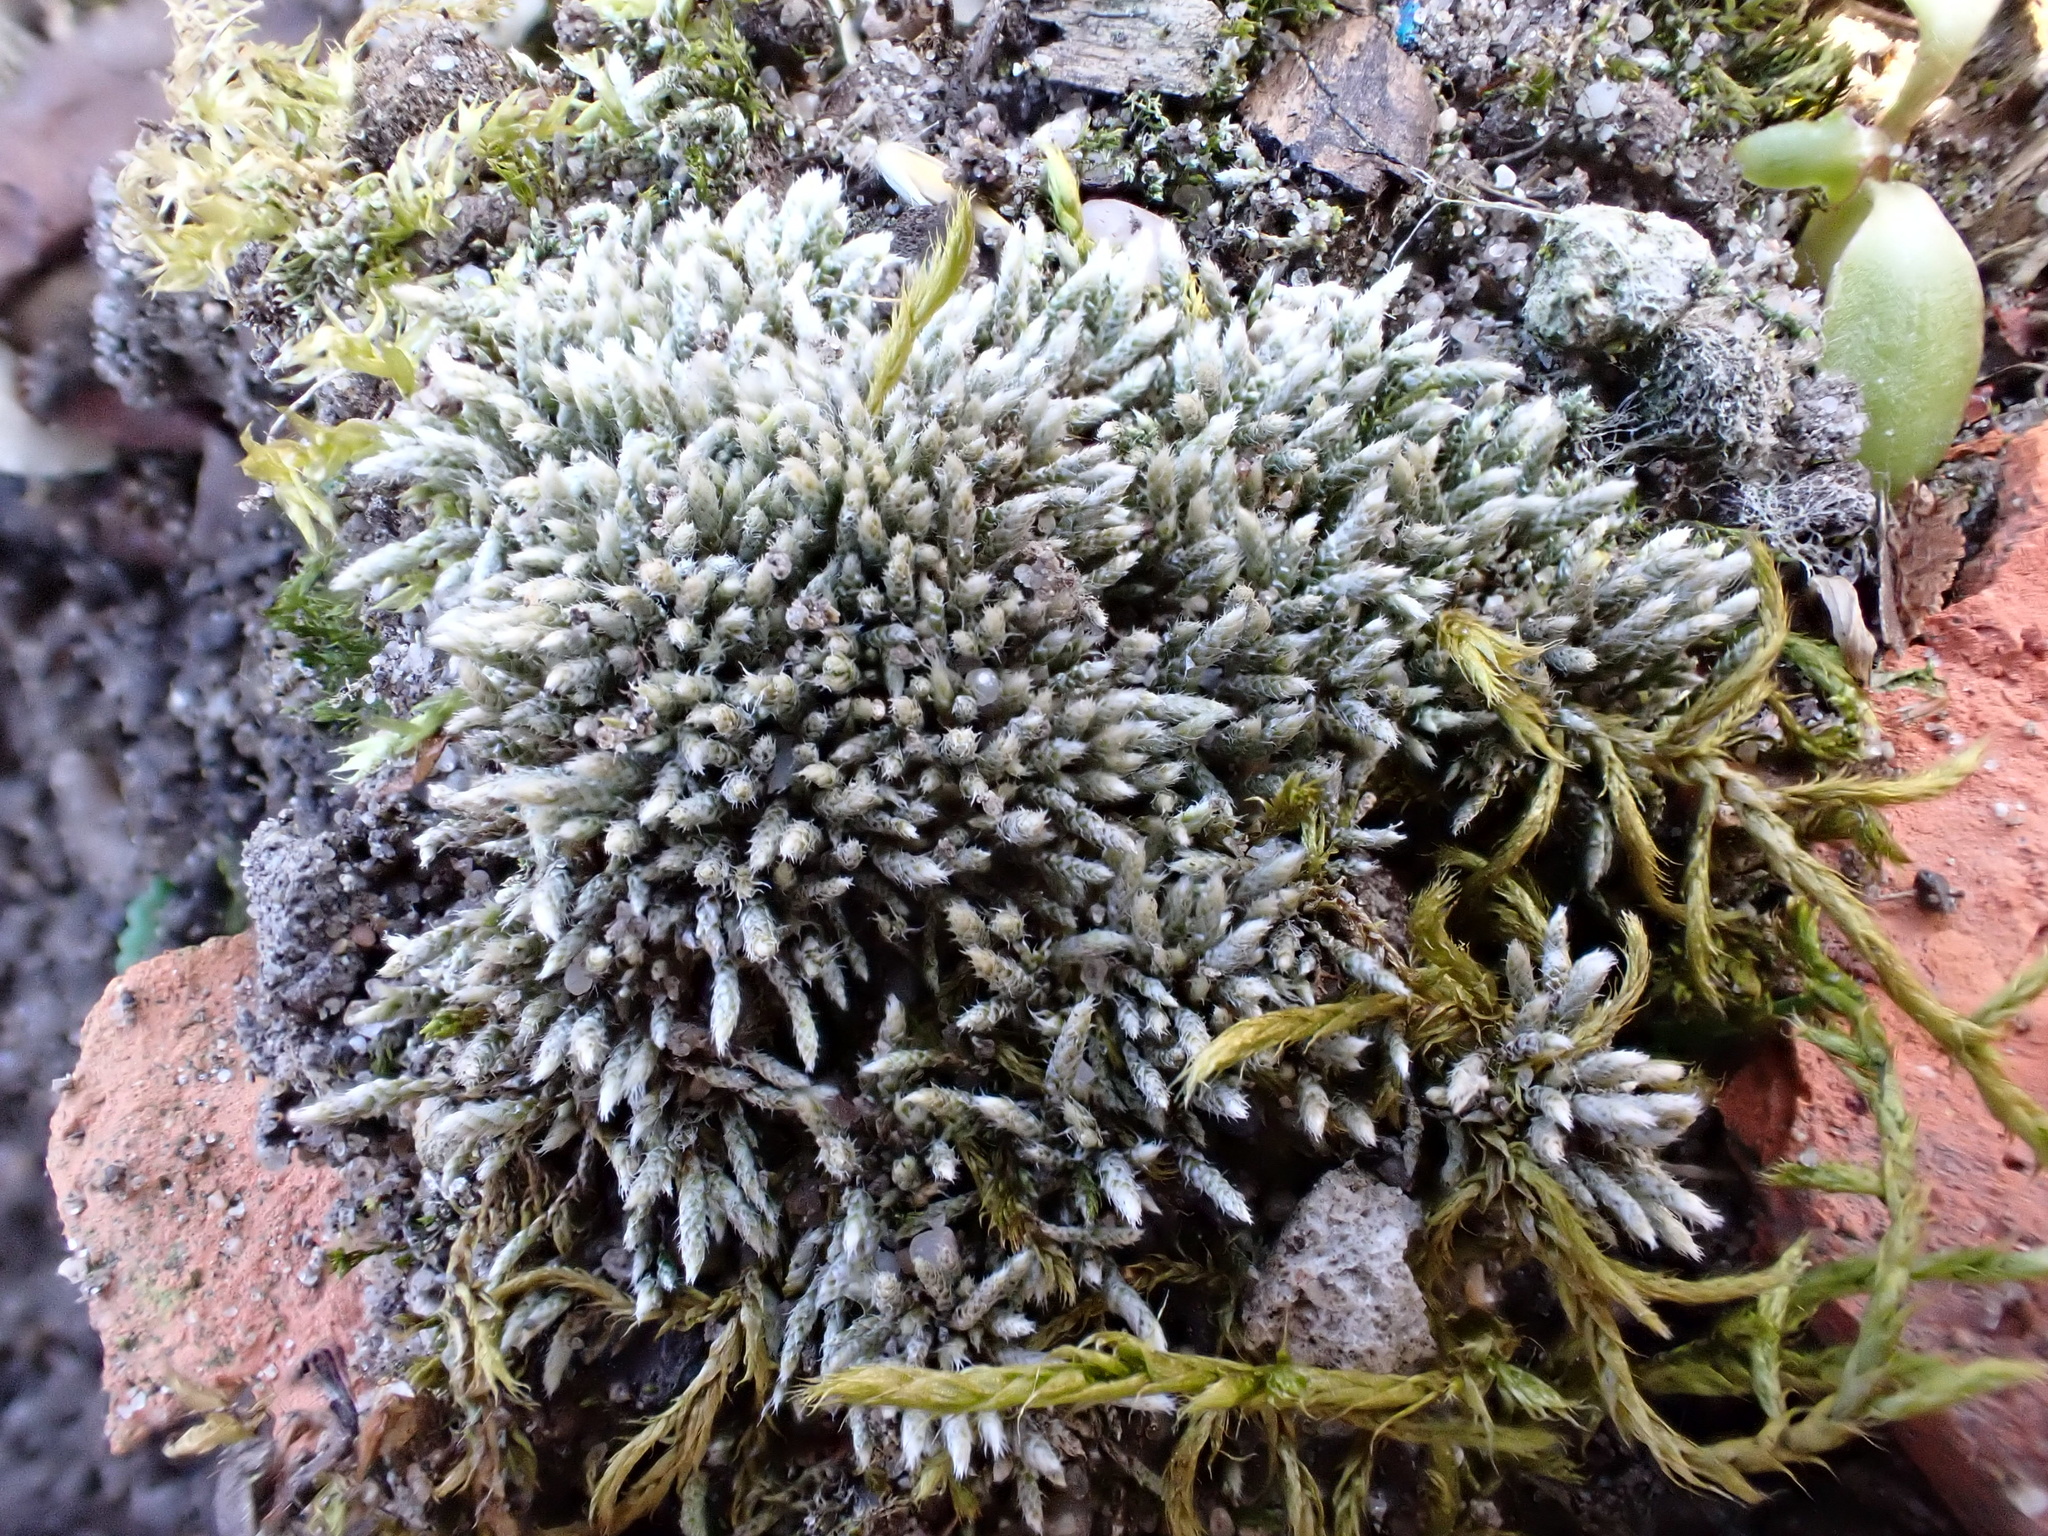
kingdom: Plantae
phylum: Bryophyta
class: Bryopsida
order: Bryales
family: Bryaceae
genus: Bryum
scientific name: Bryum argenteum
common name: Silver-moss
